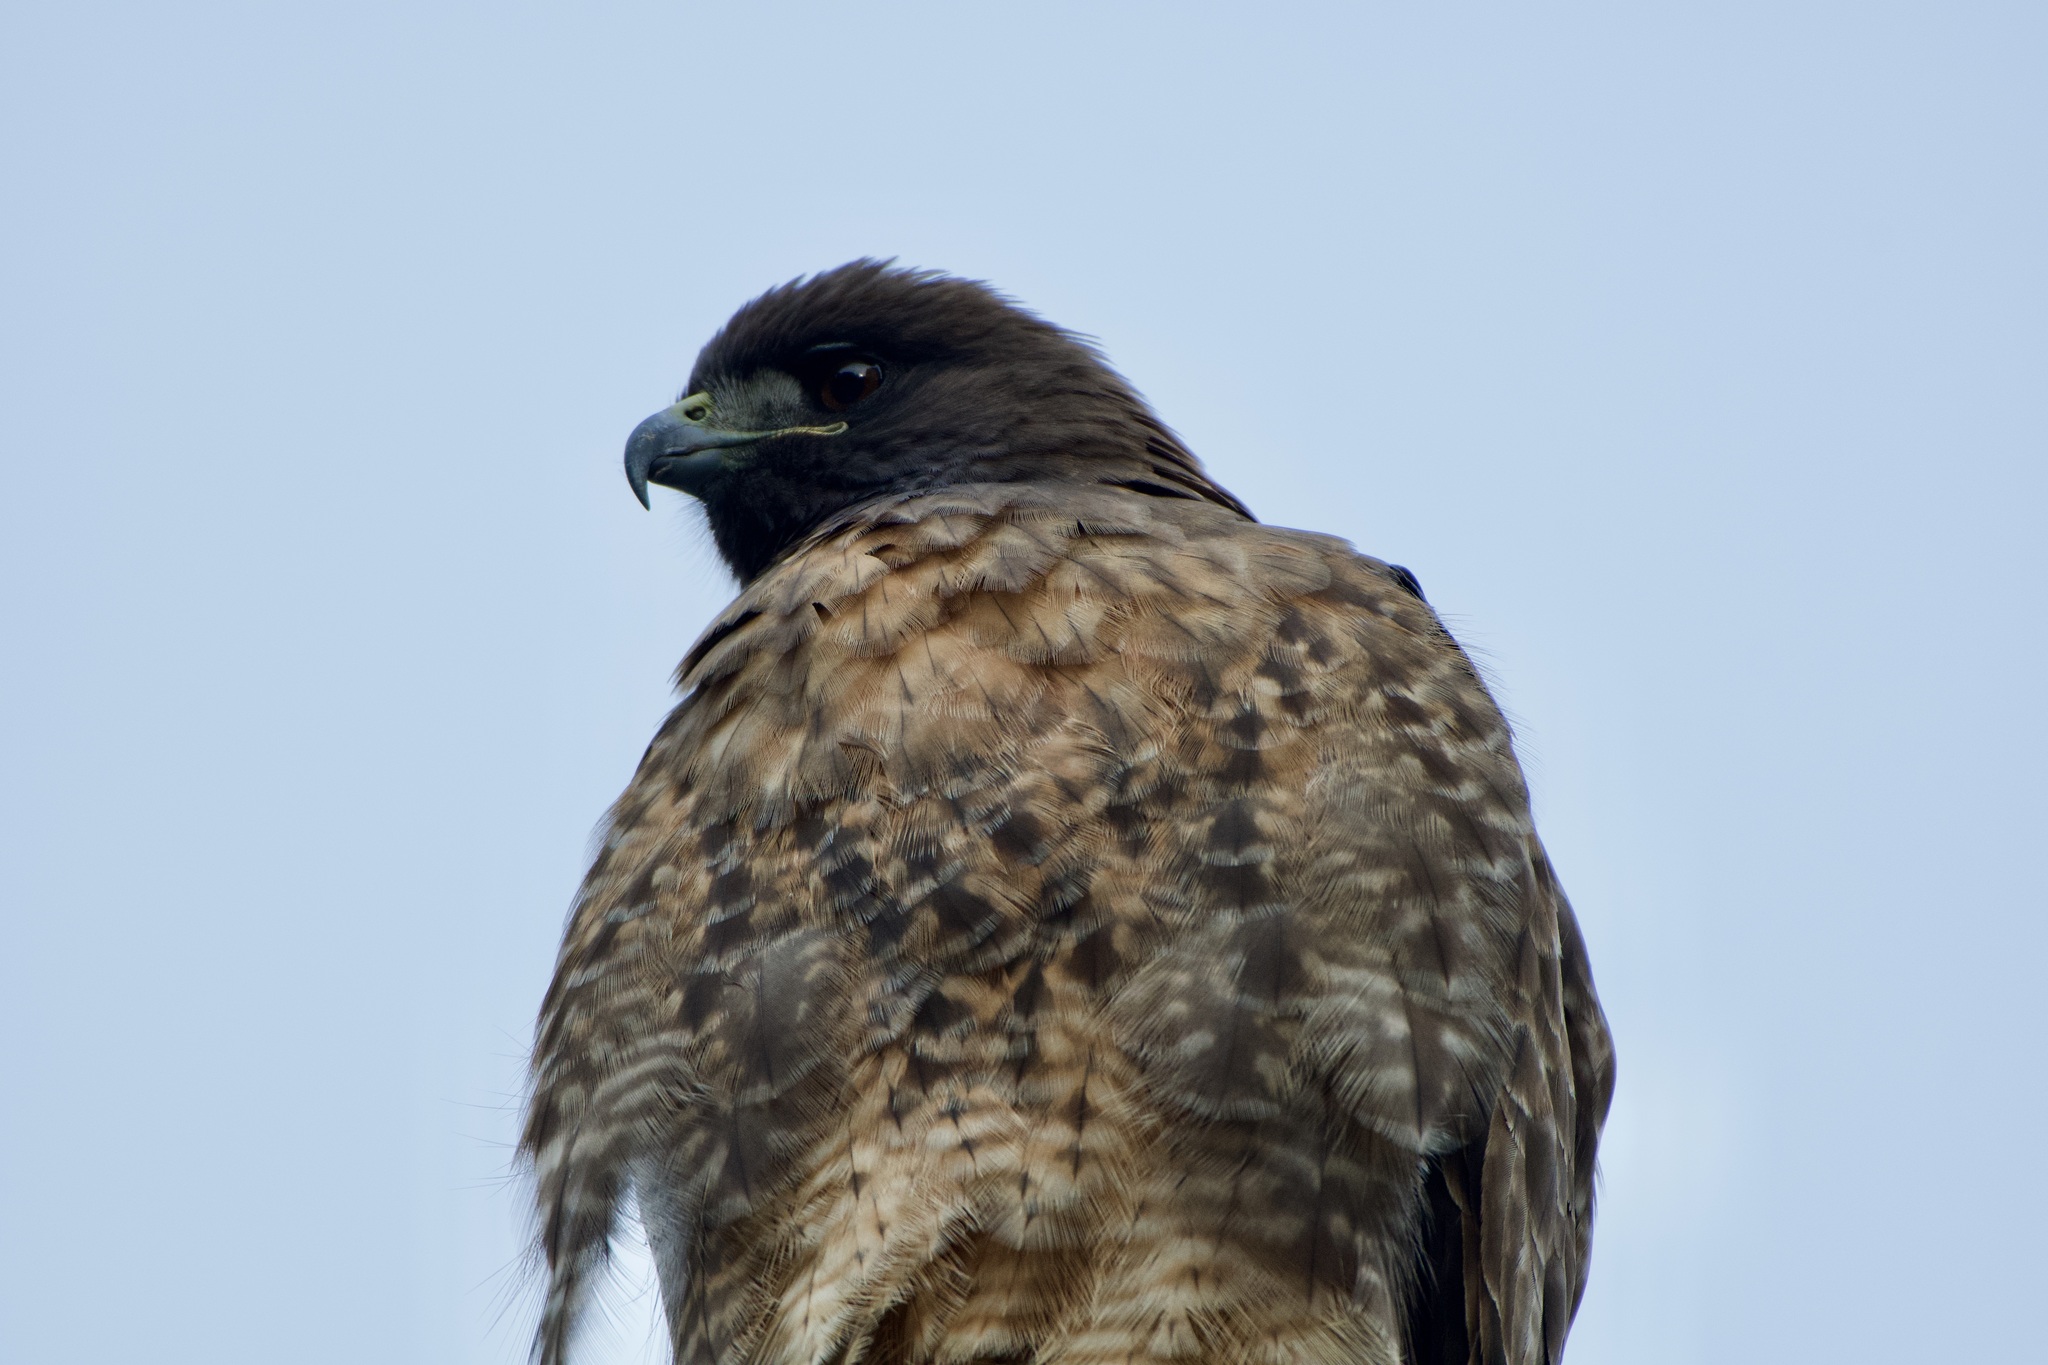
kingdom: Animalia
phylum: Chordata
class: Aves
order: Accipitriformes
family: Accipitridae
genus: Buteo
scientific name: Buteo jamaicensis
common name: Red-tailed hawk
